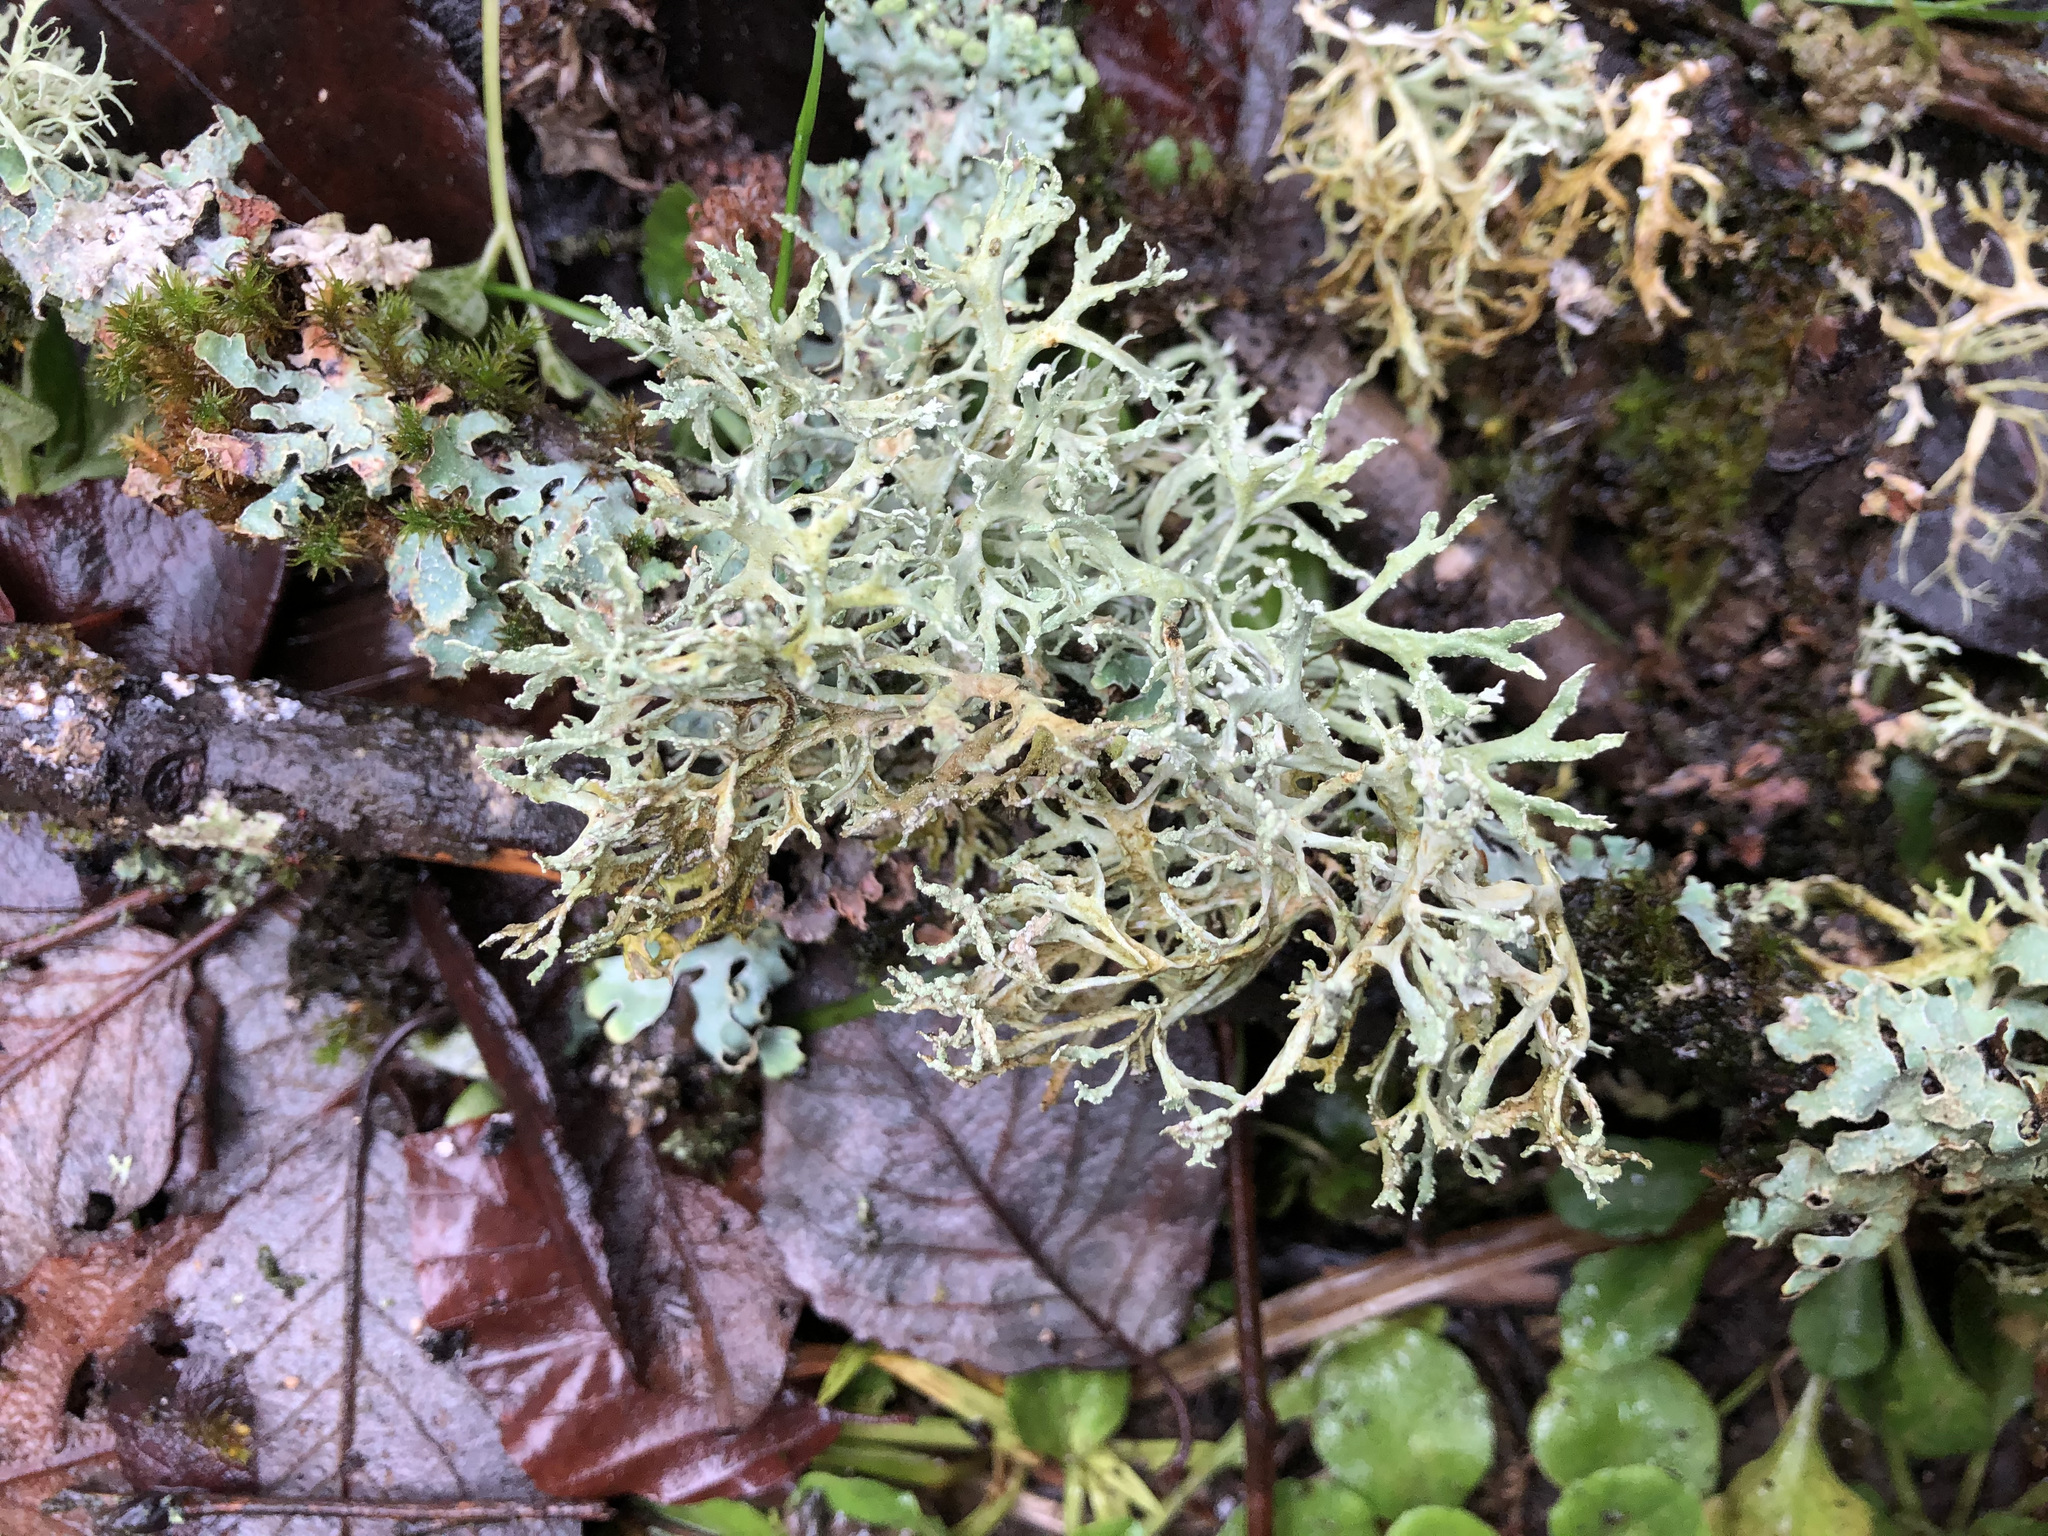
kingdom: Fungi
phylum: Ascomycota
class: Lecanoromycetes
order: Lecanorales
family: Parmeliaceae
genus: Evernia
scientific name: Evernia prunastri
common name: Oak moss
